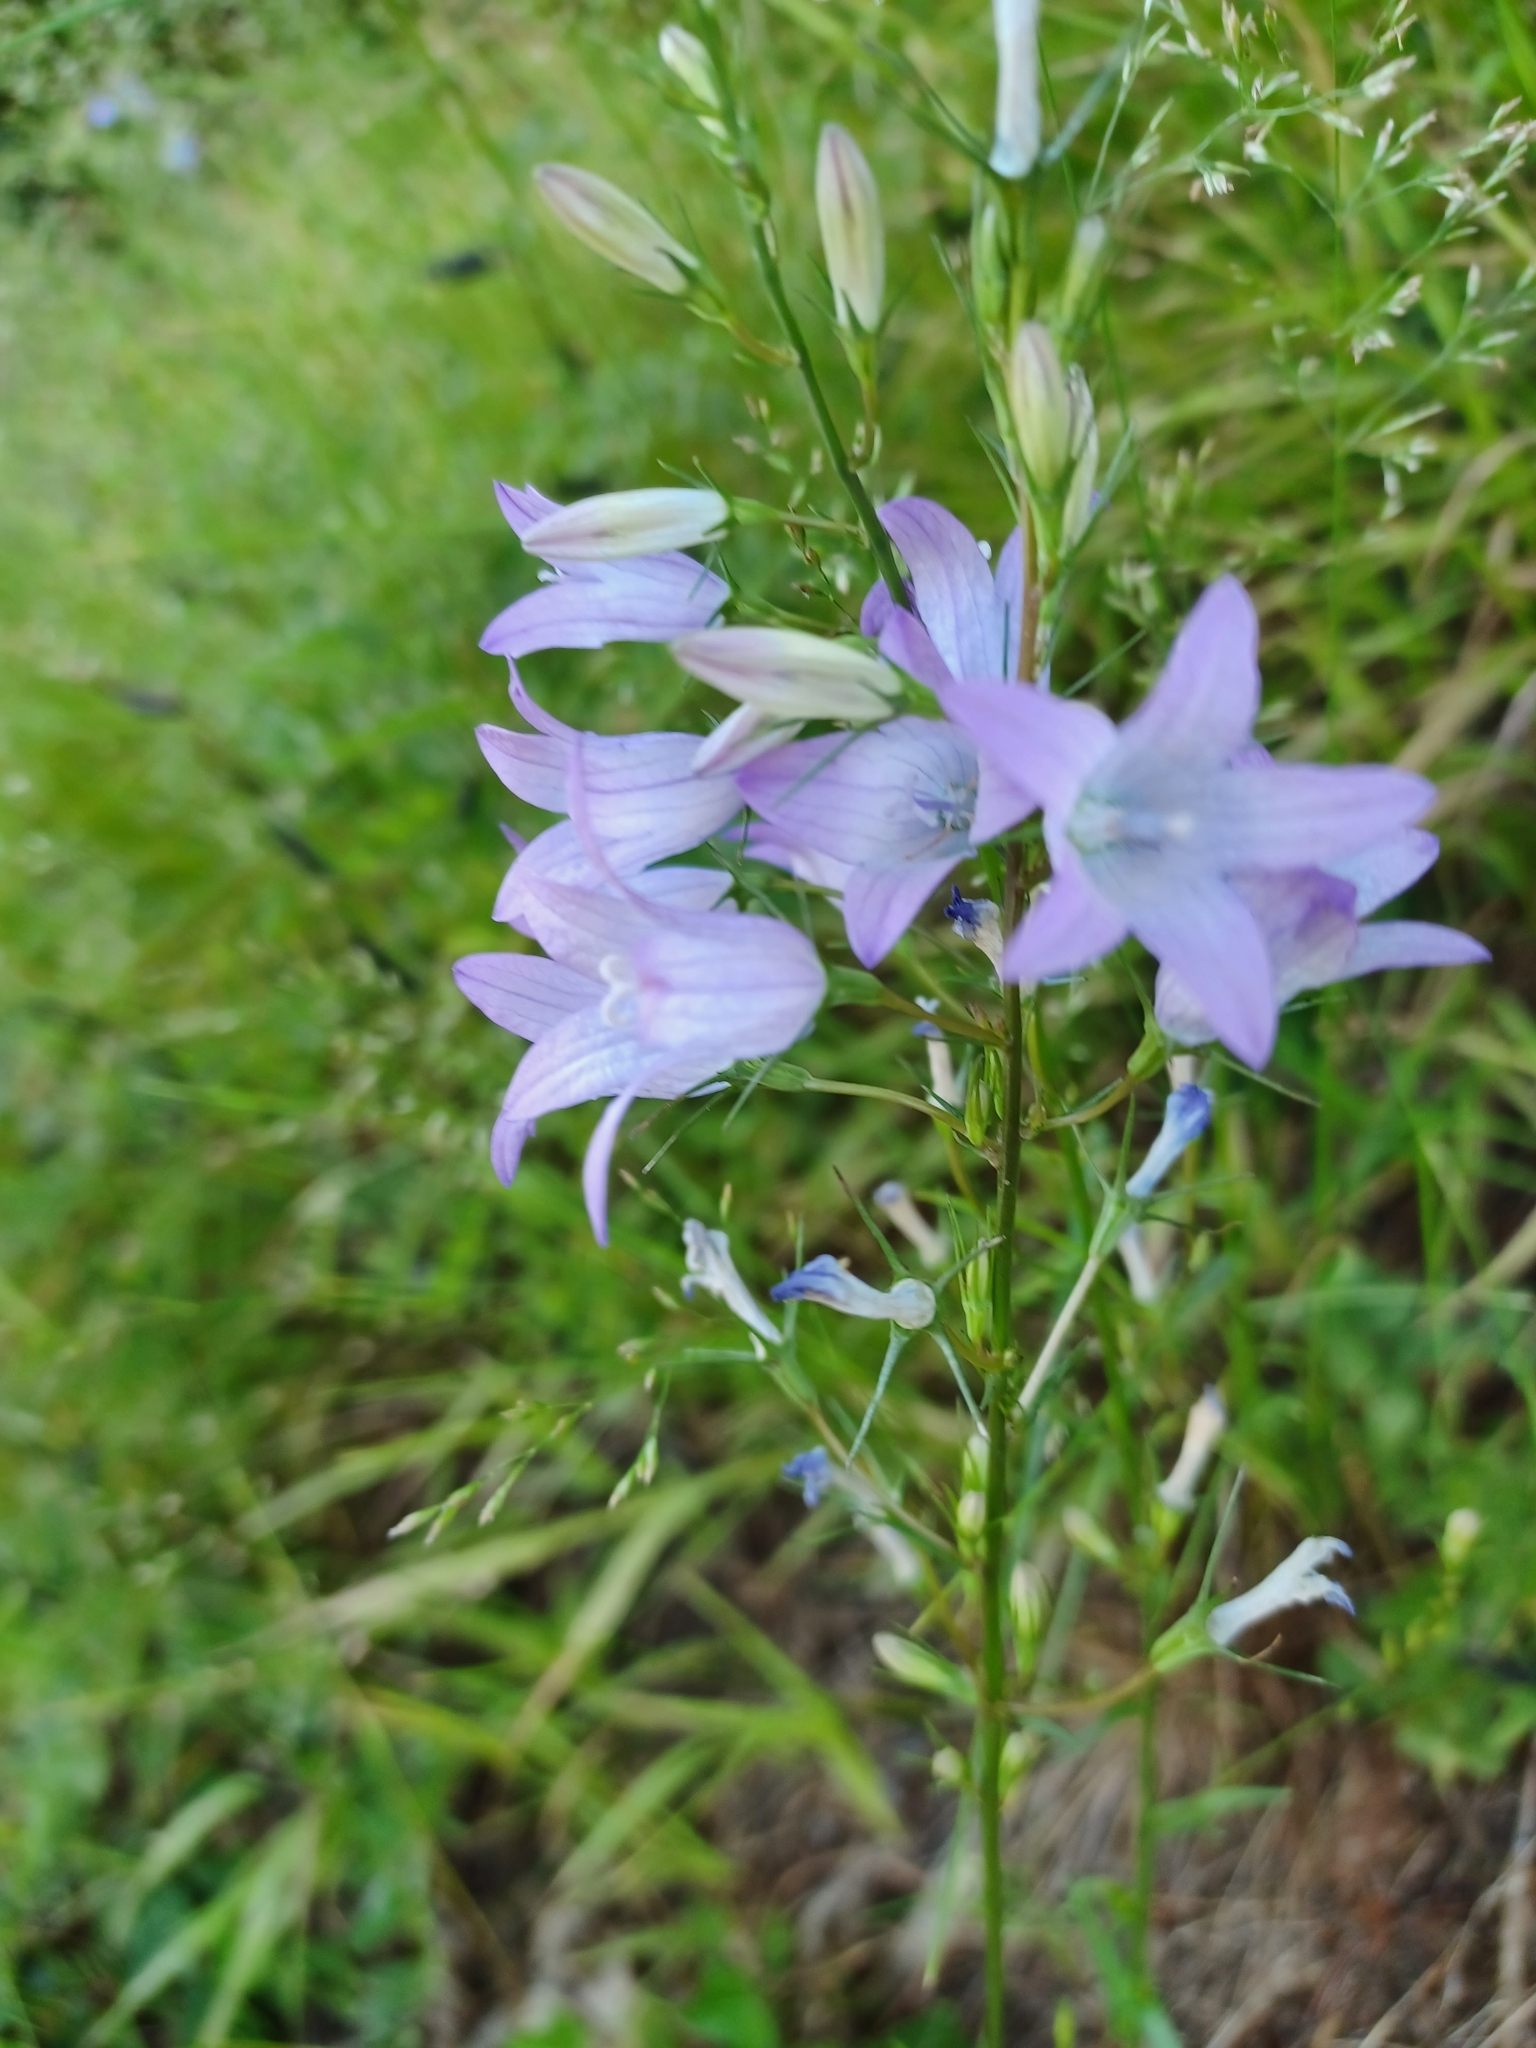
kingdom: Plantae
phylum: Tracheophyta
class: Magnoliopsida
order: Asterales
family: Campanulaceae
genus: Campanula
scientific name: Campanula rapunculus
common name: Rampion bellflower
